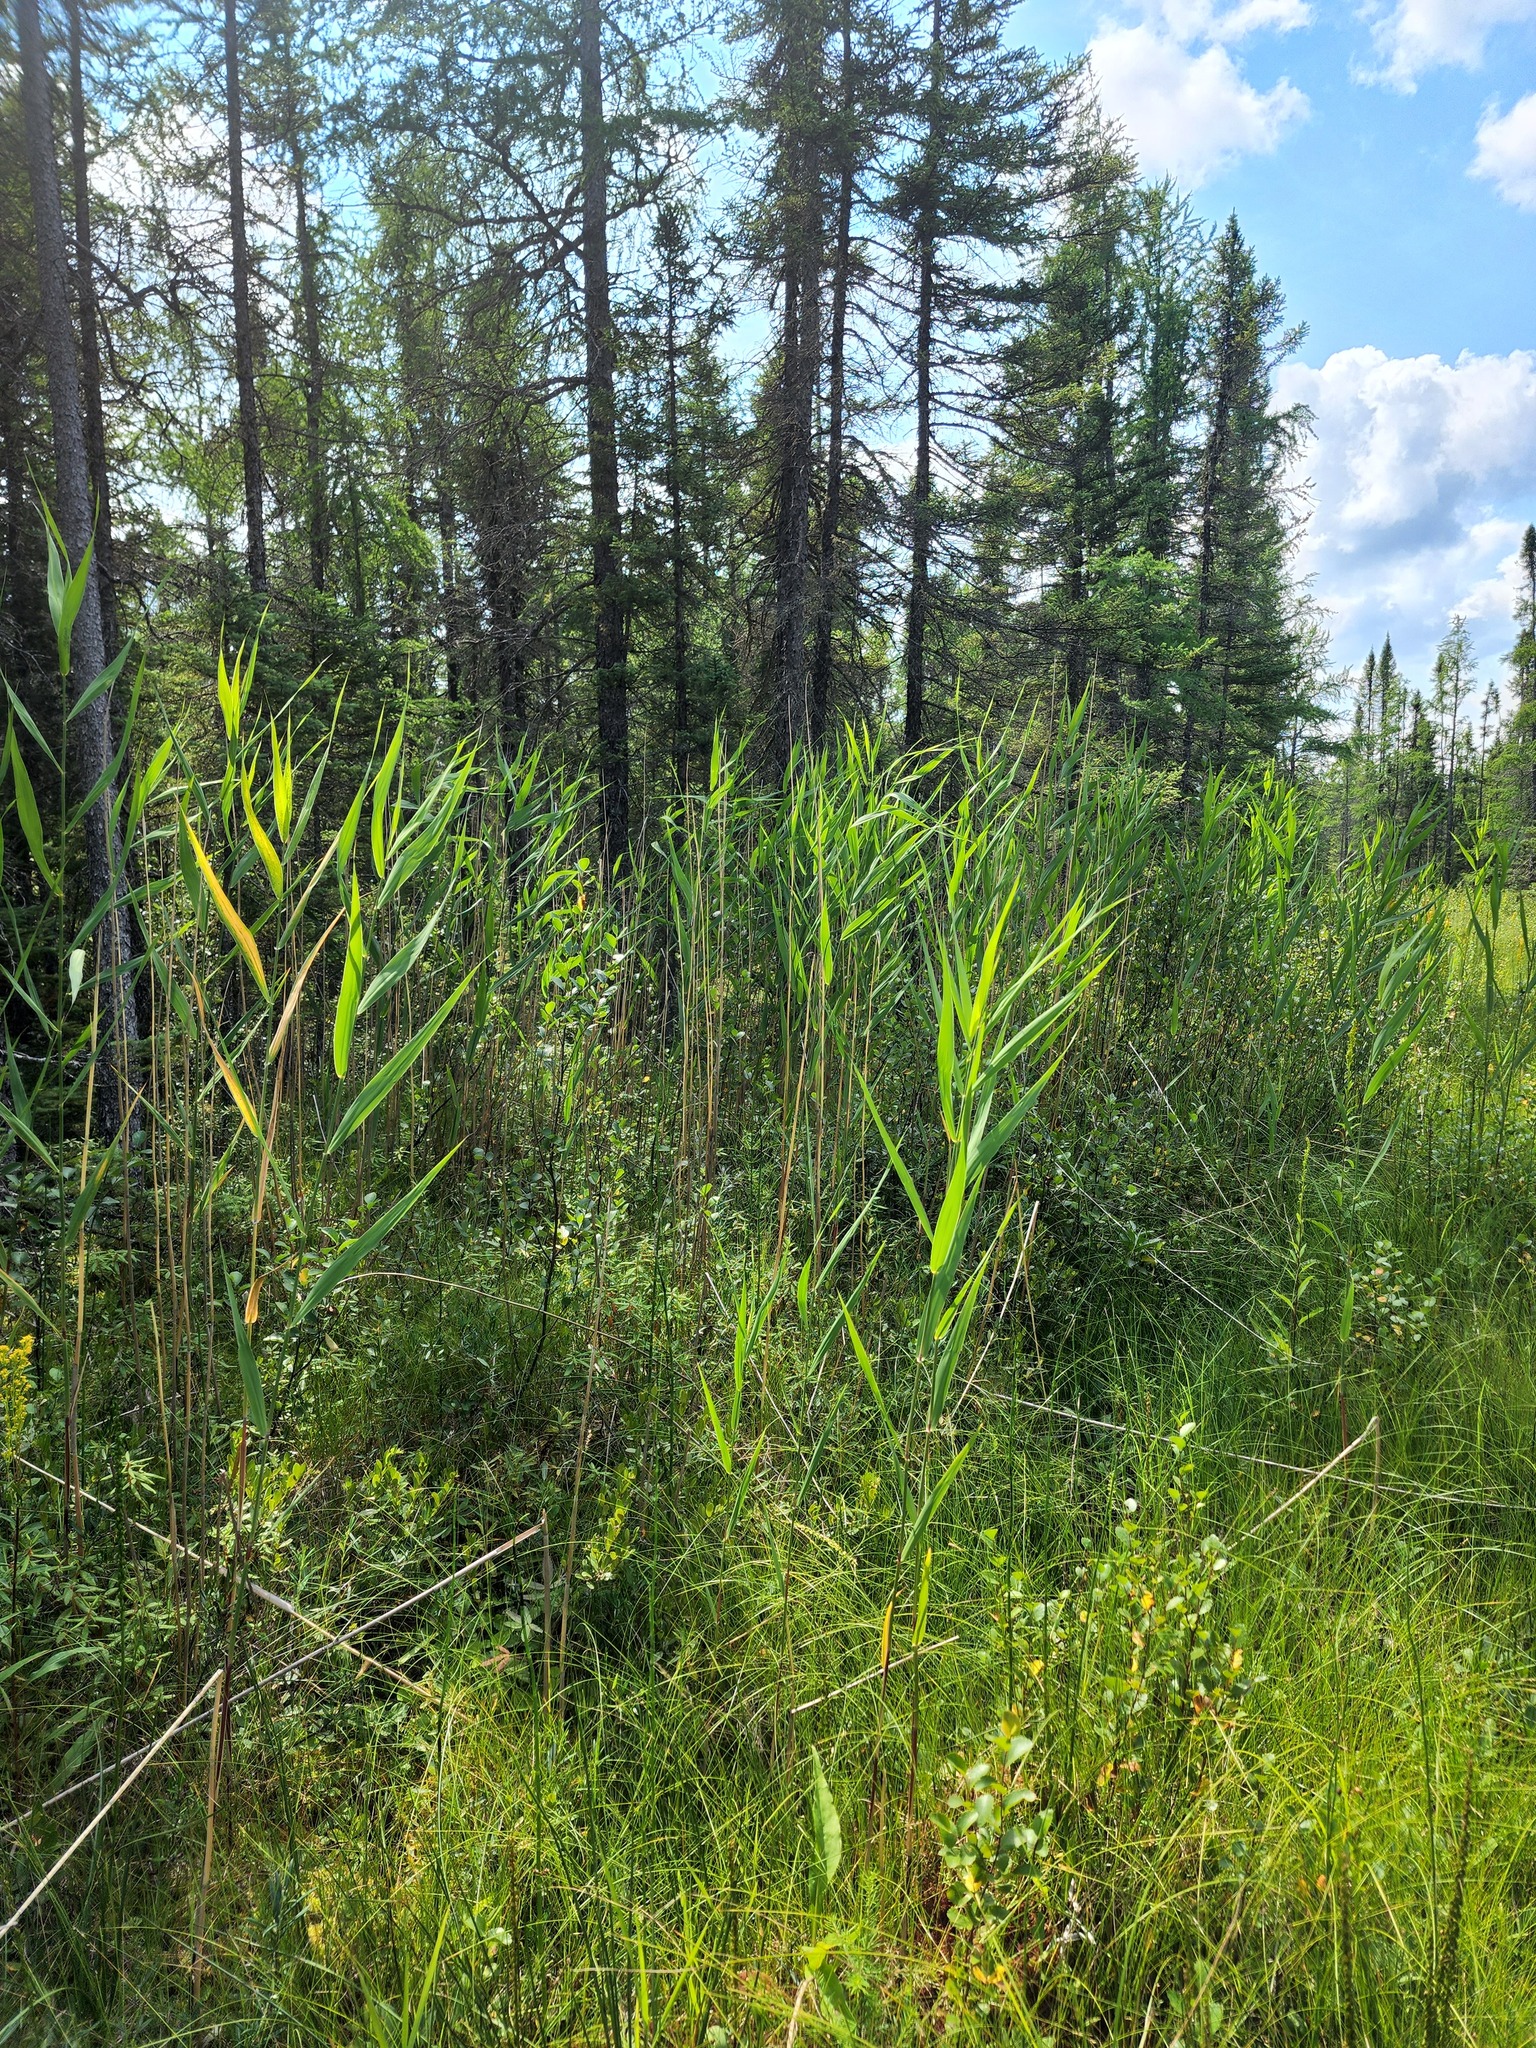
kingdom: Plantae
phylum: Tracheophyta
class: Liliopsida
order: Poales
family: Poaceae
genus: Phragmites
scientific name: Phragmites australis
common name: Common reed
